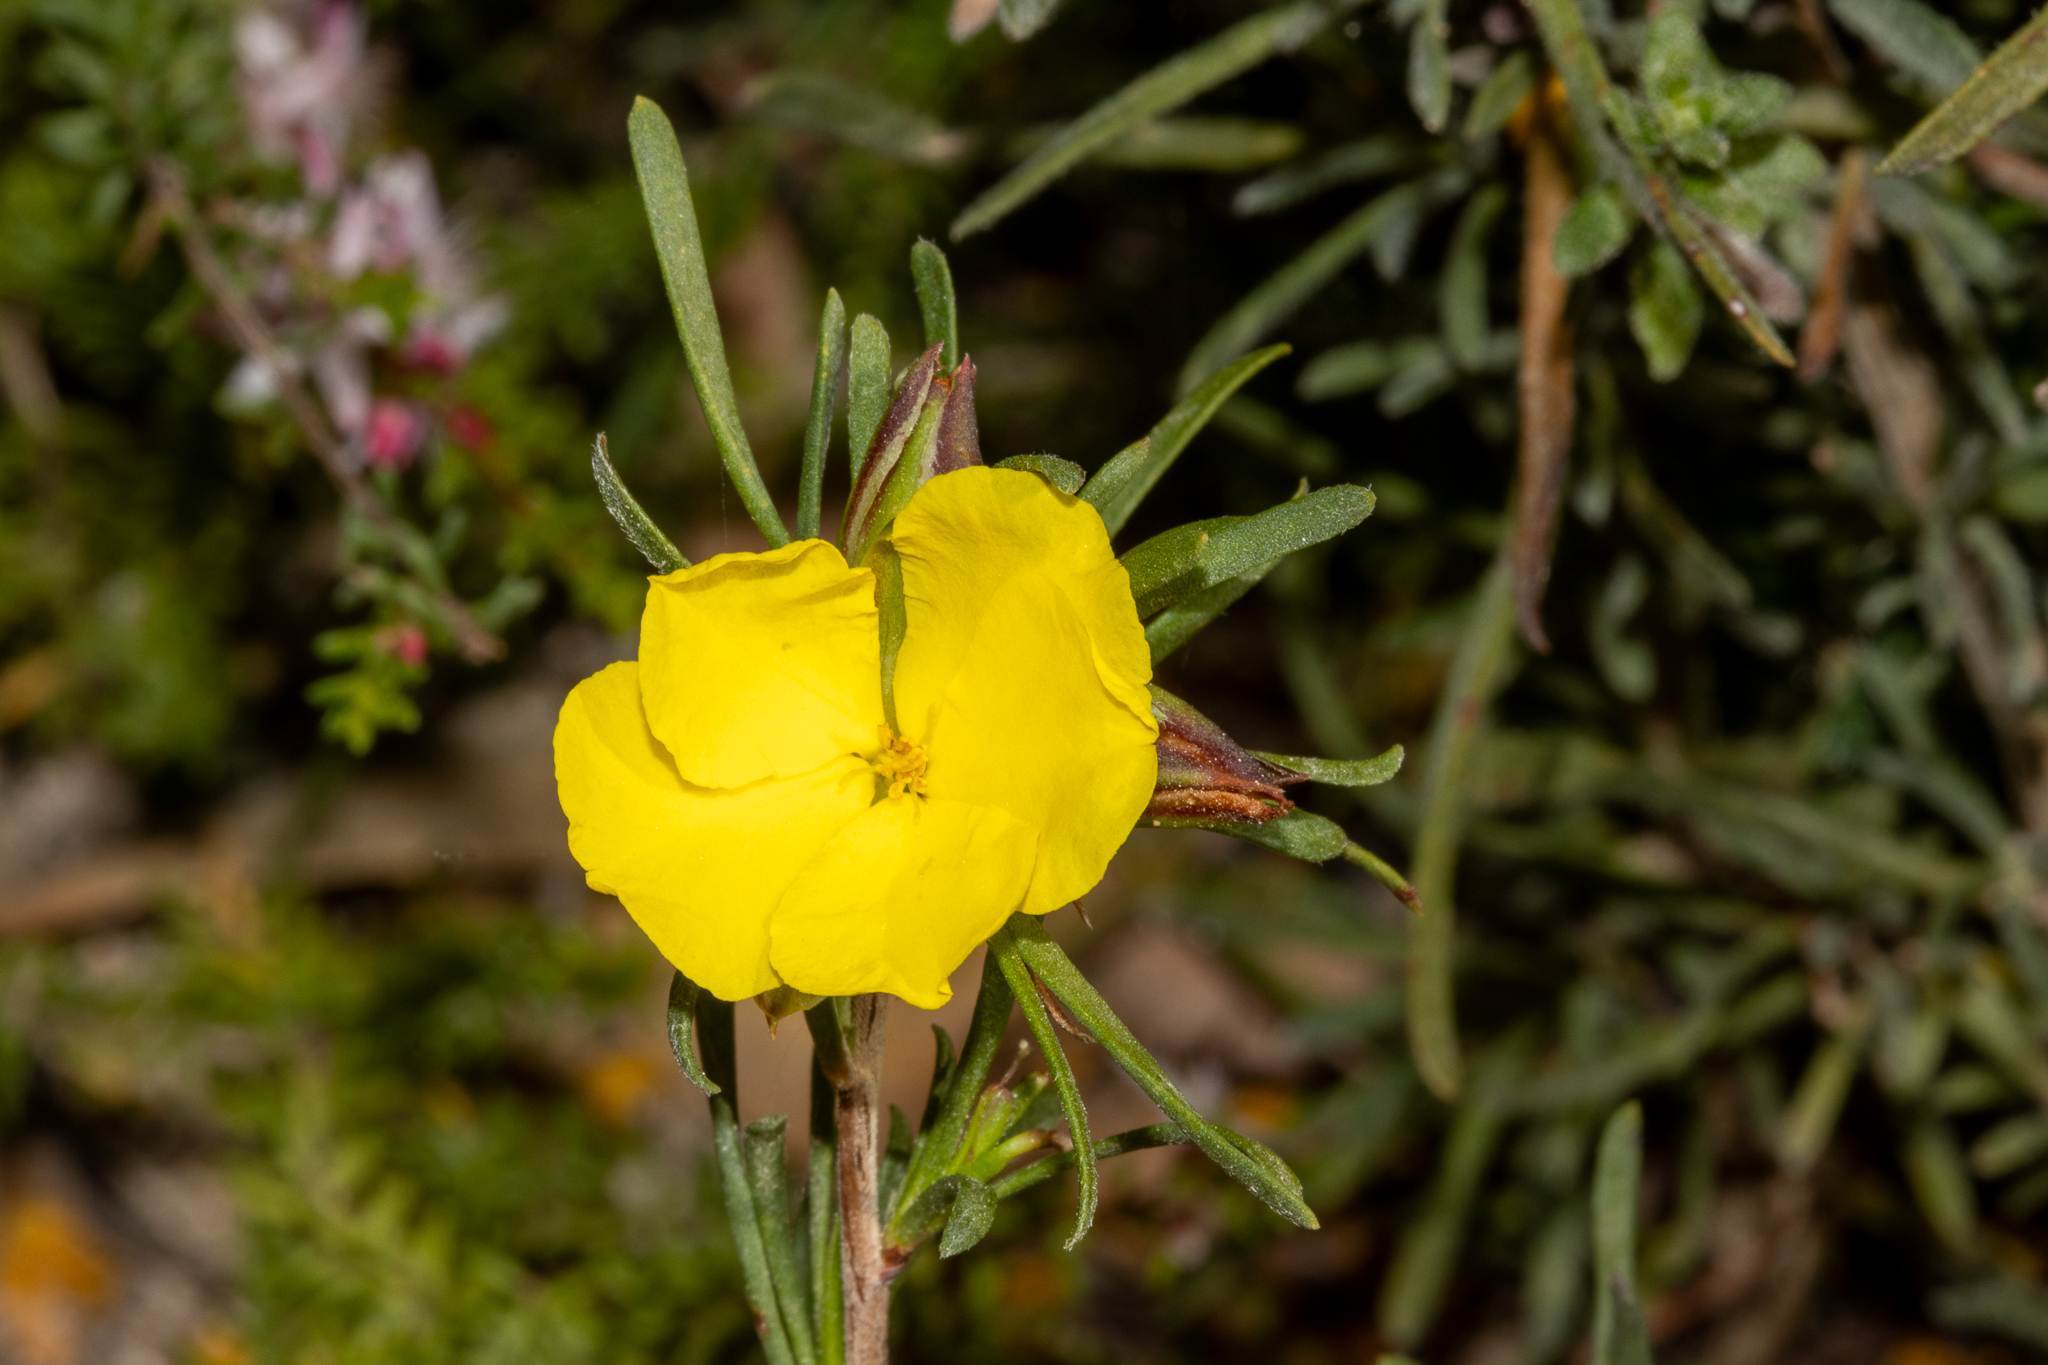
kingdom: Plantae
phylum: Tracheophyta
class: Magnoliopsida
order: Dilleniales
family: Dilleniaceae
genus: Hibbertia
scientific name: Hibbertia virgata
